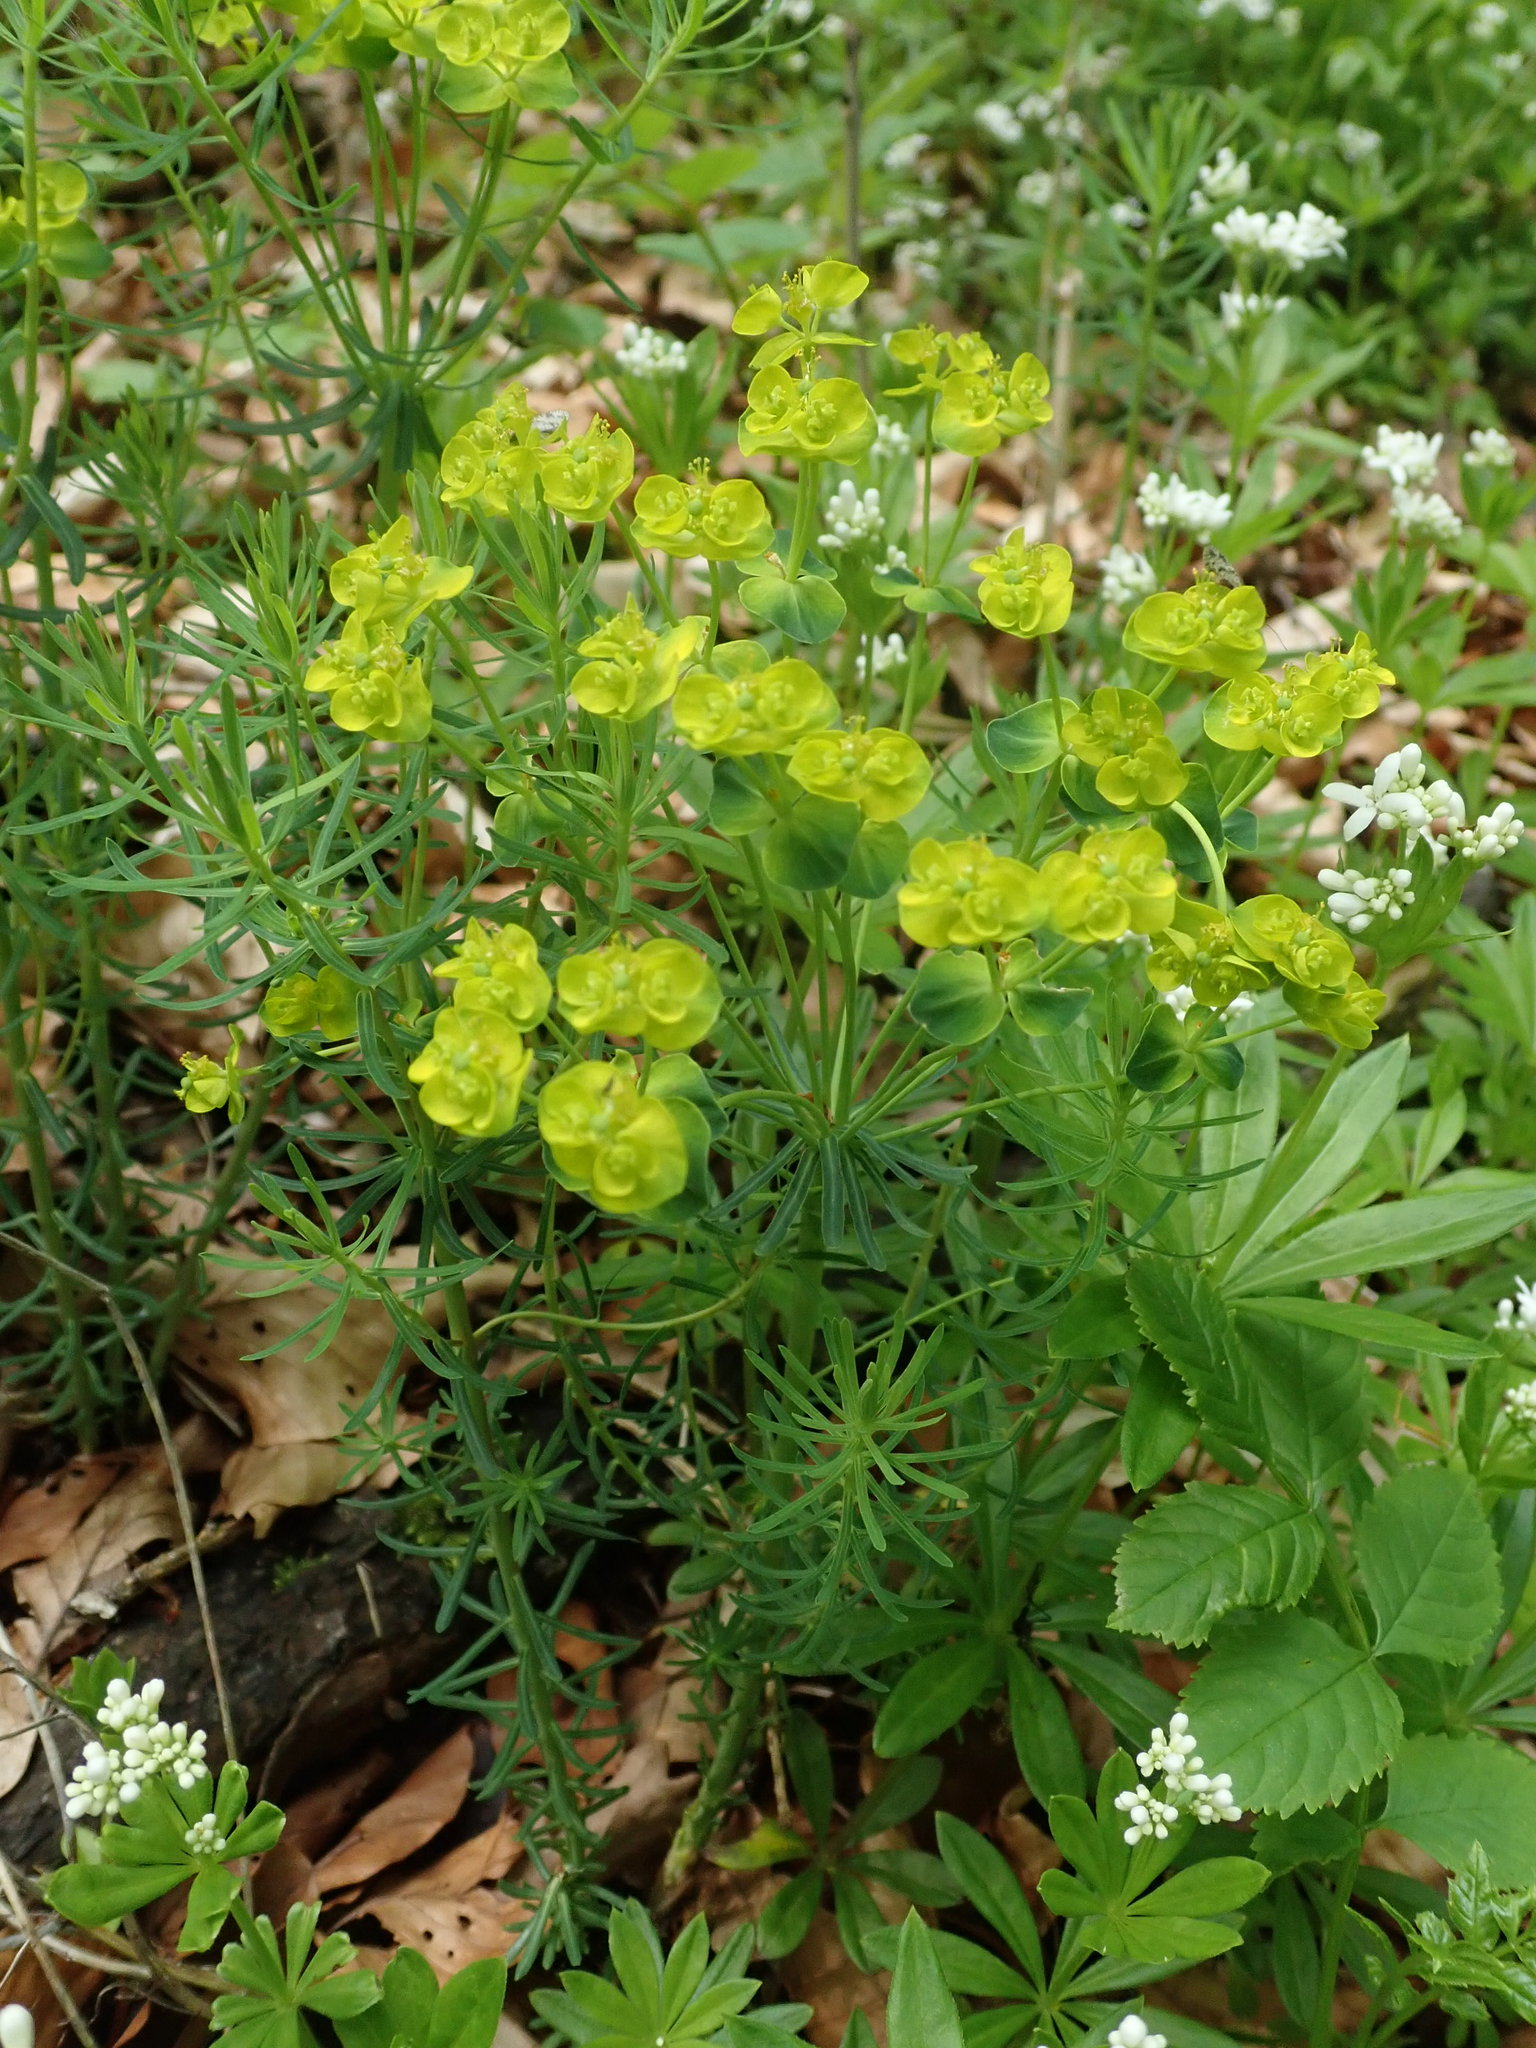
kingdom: Plantae
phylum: Tracheophyta
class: Magnoliopsida
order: Malpighiales
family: Euphorbiaceae
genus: Euphorbia
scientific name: Euphorbia cyparissias
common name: Cypress spurge
